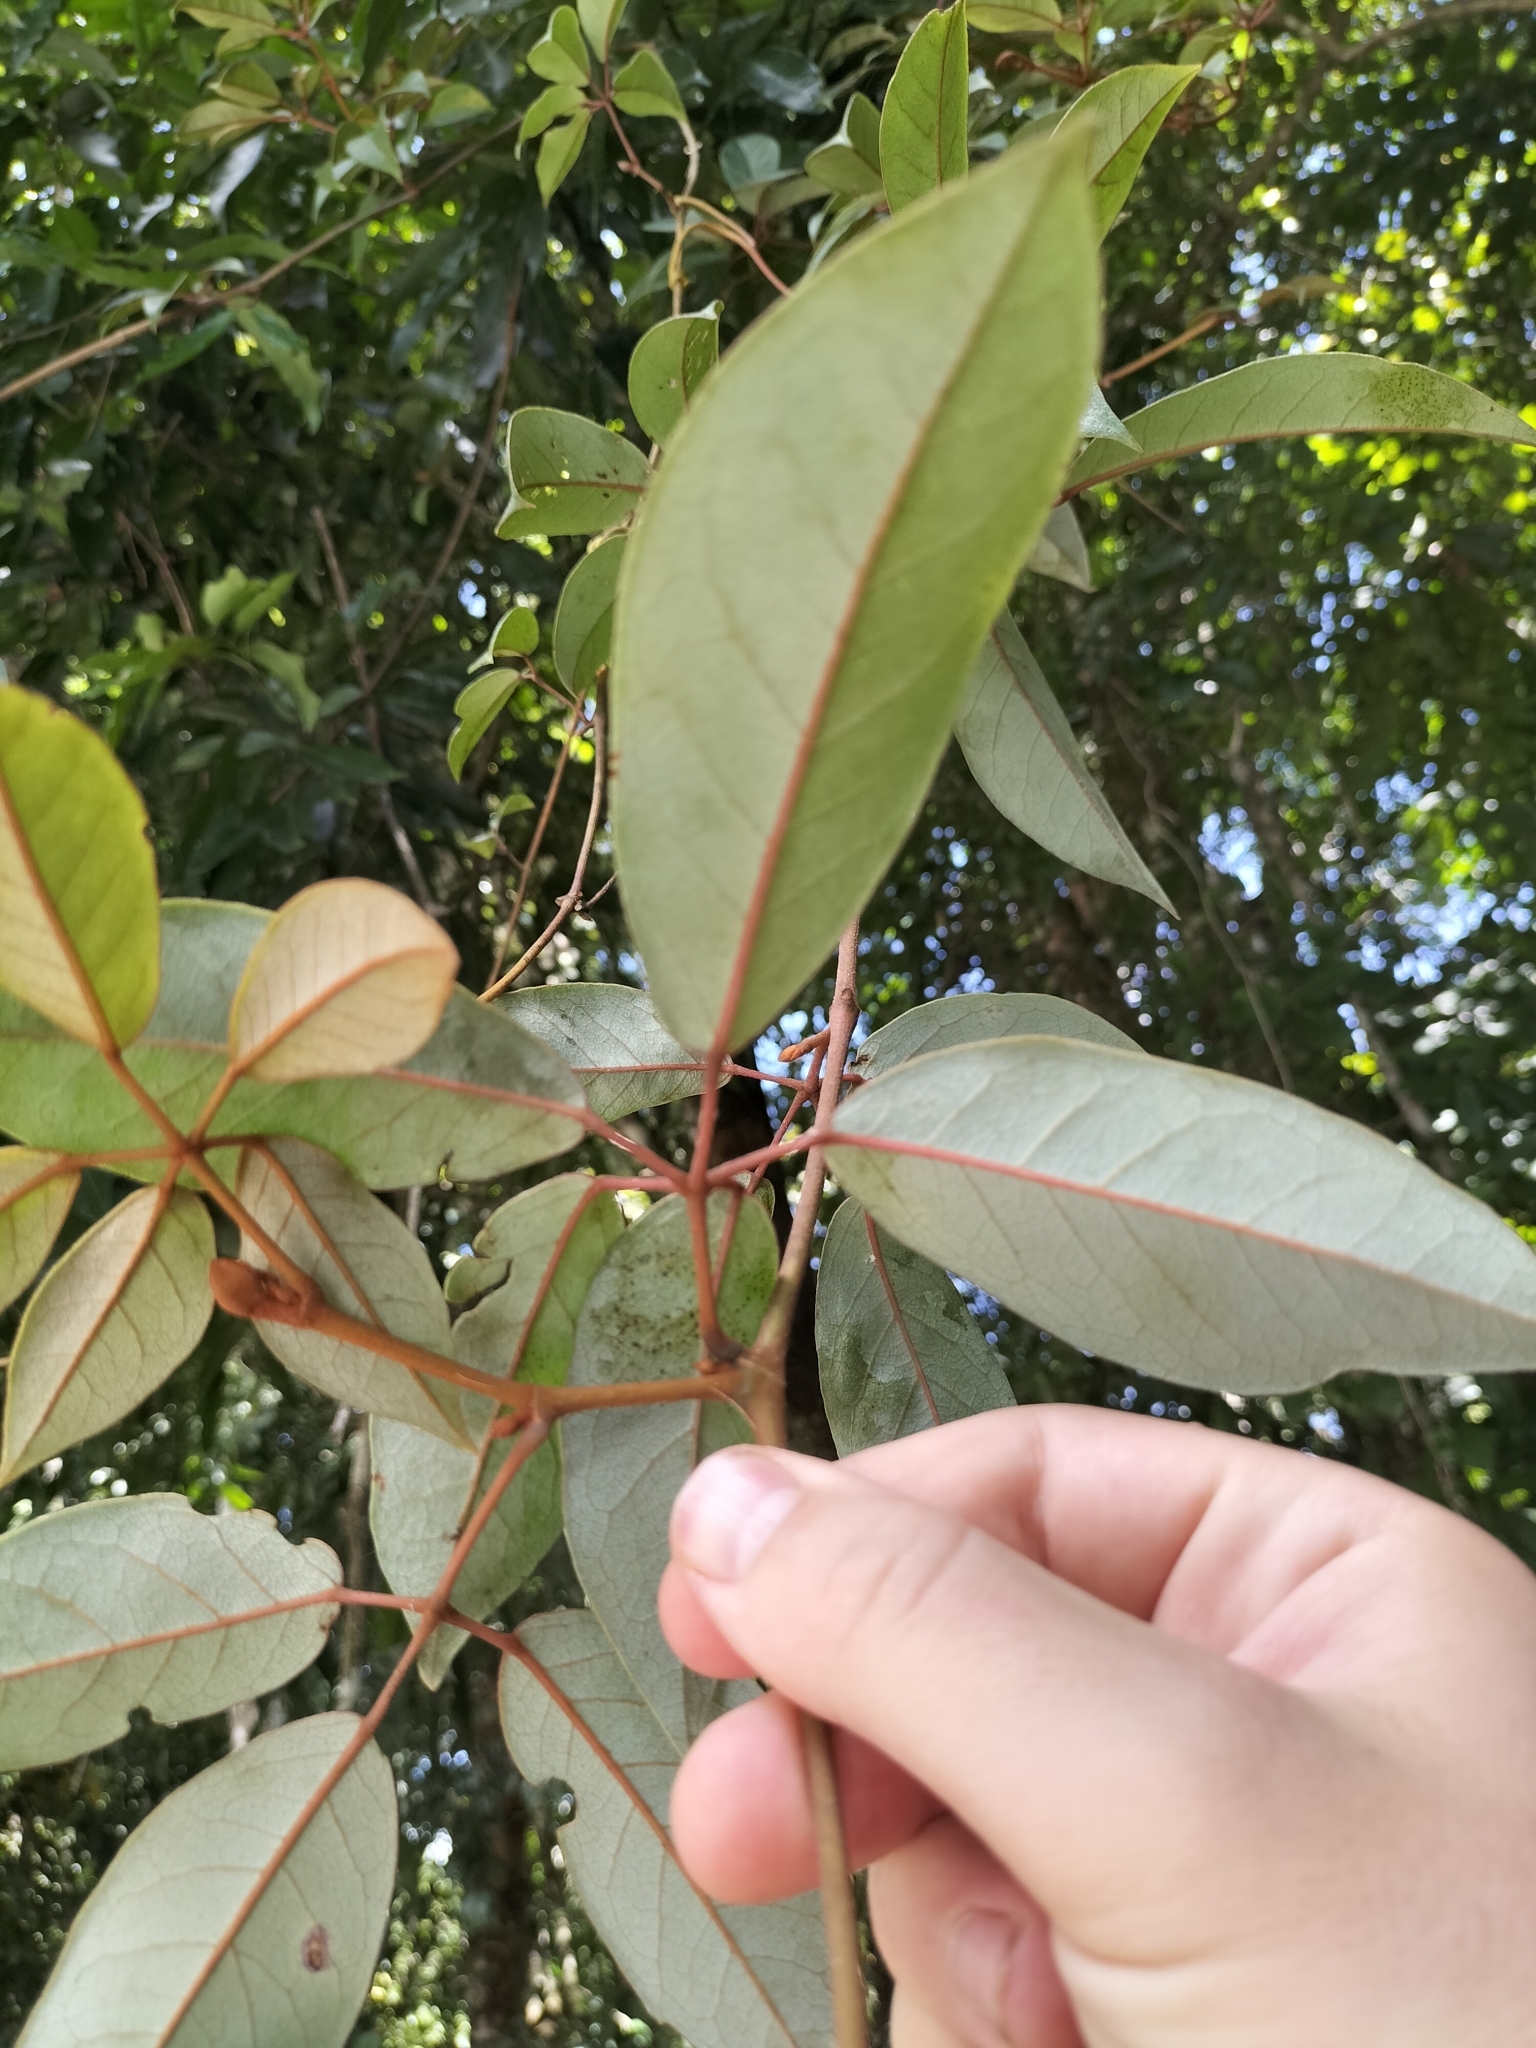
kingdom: Plantae
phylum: Tracheophyta
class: Magnoliopsida
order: Vitales
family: Vitaceae
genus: Nothocissus
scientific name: Nothocissus hypoglauca
